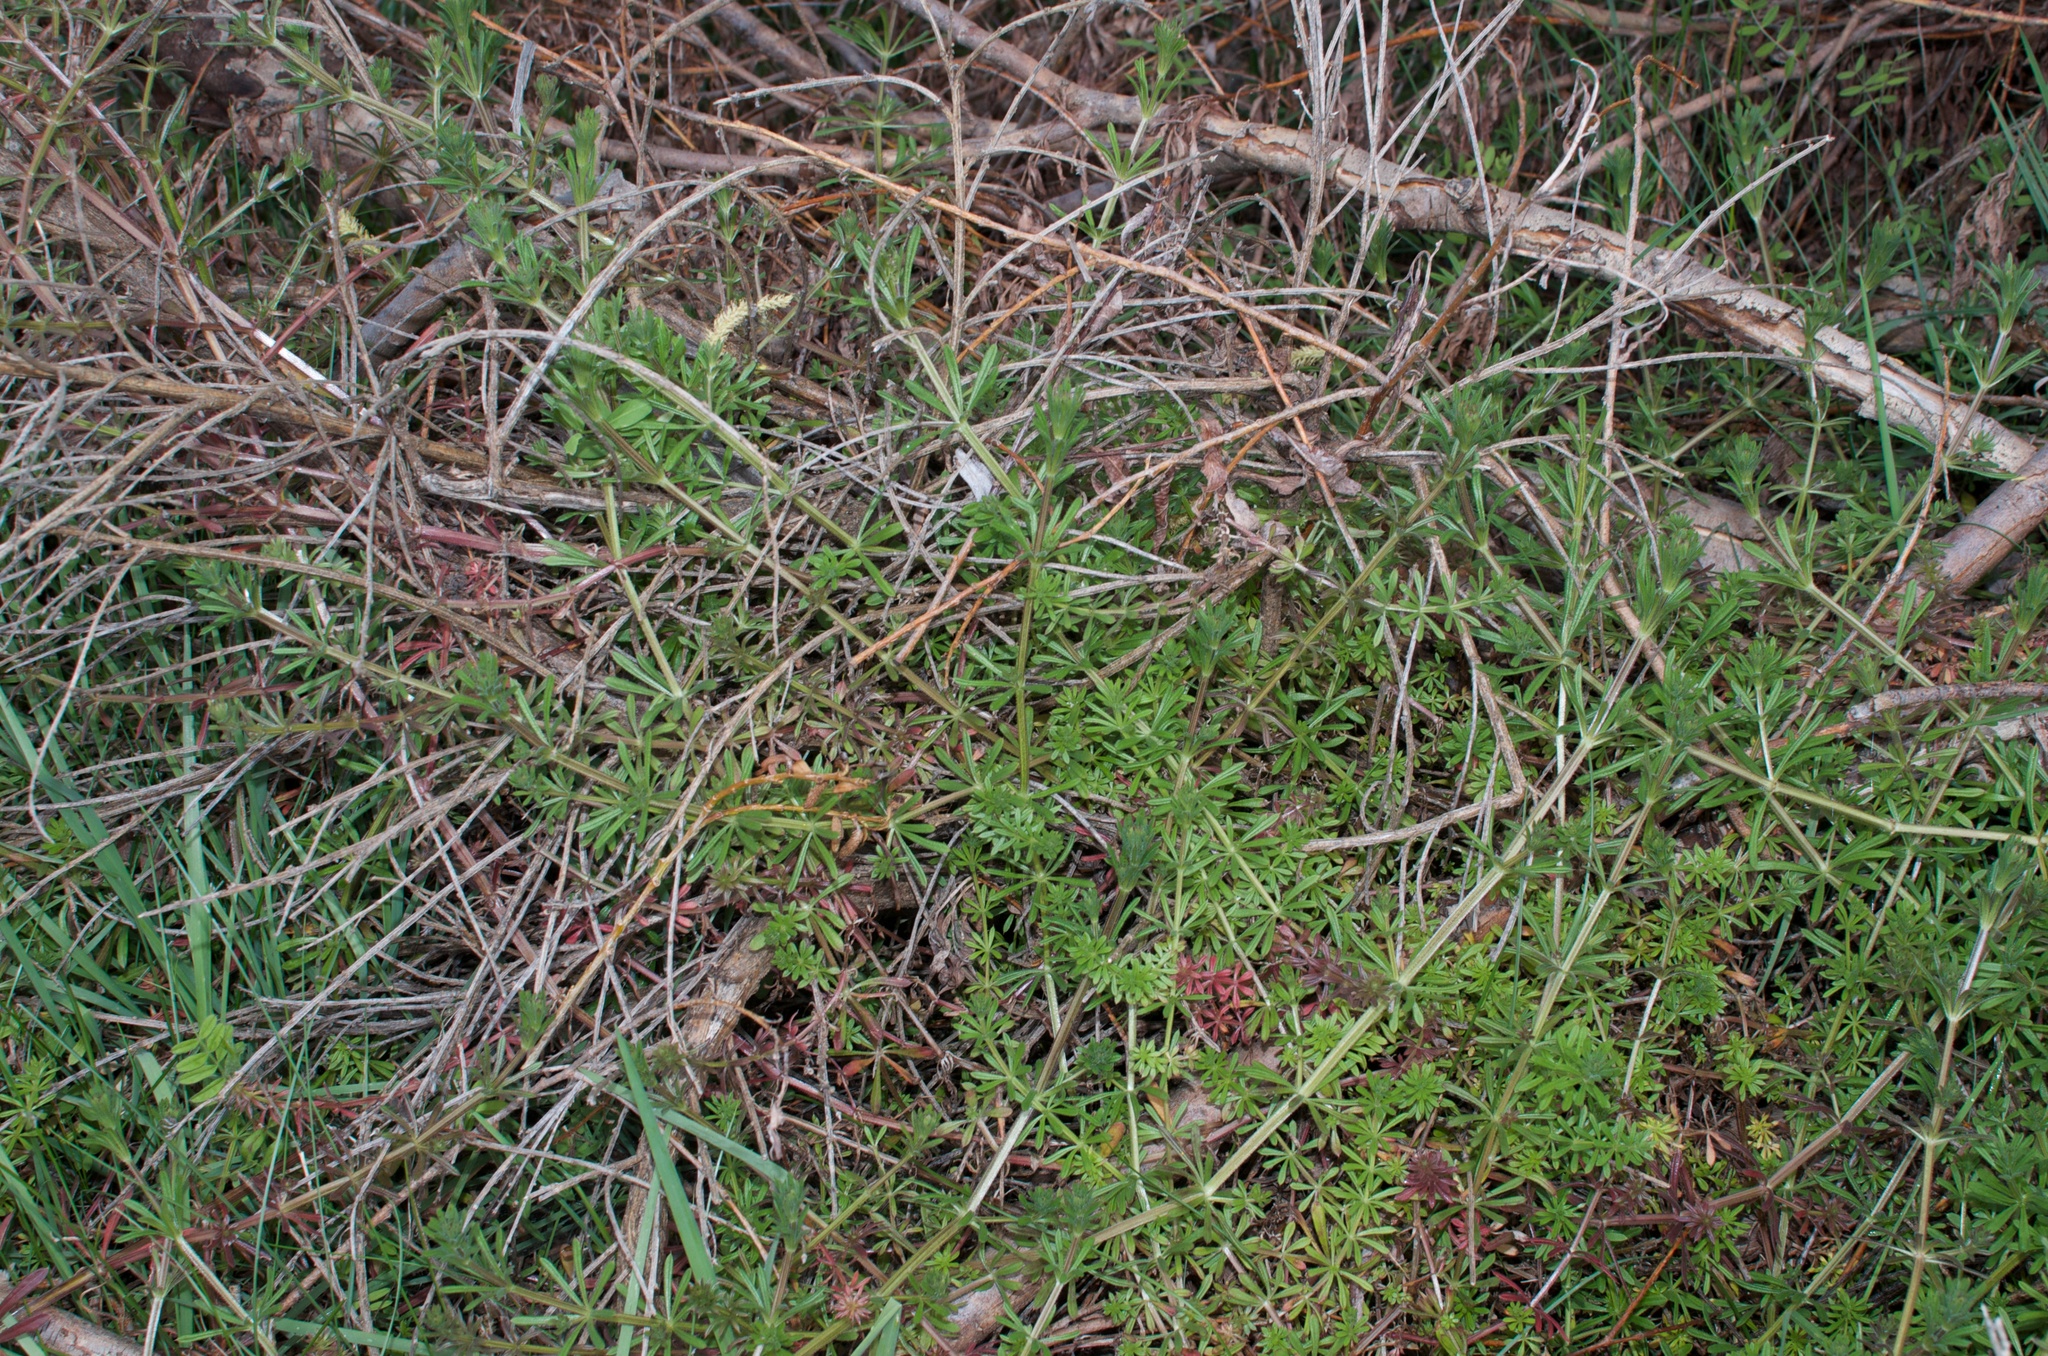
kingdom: Plantae
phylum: Tracheophyta
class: Magnoliopsida
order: Gentianales
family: Rubiaceae
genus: Galium
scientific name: Galium aparine
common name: Cleavers
